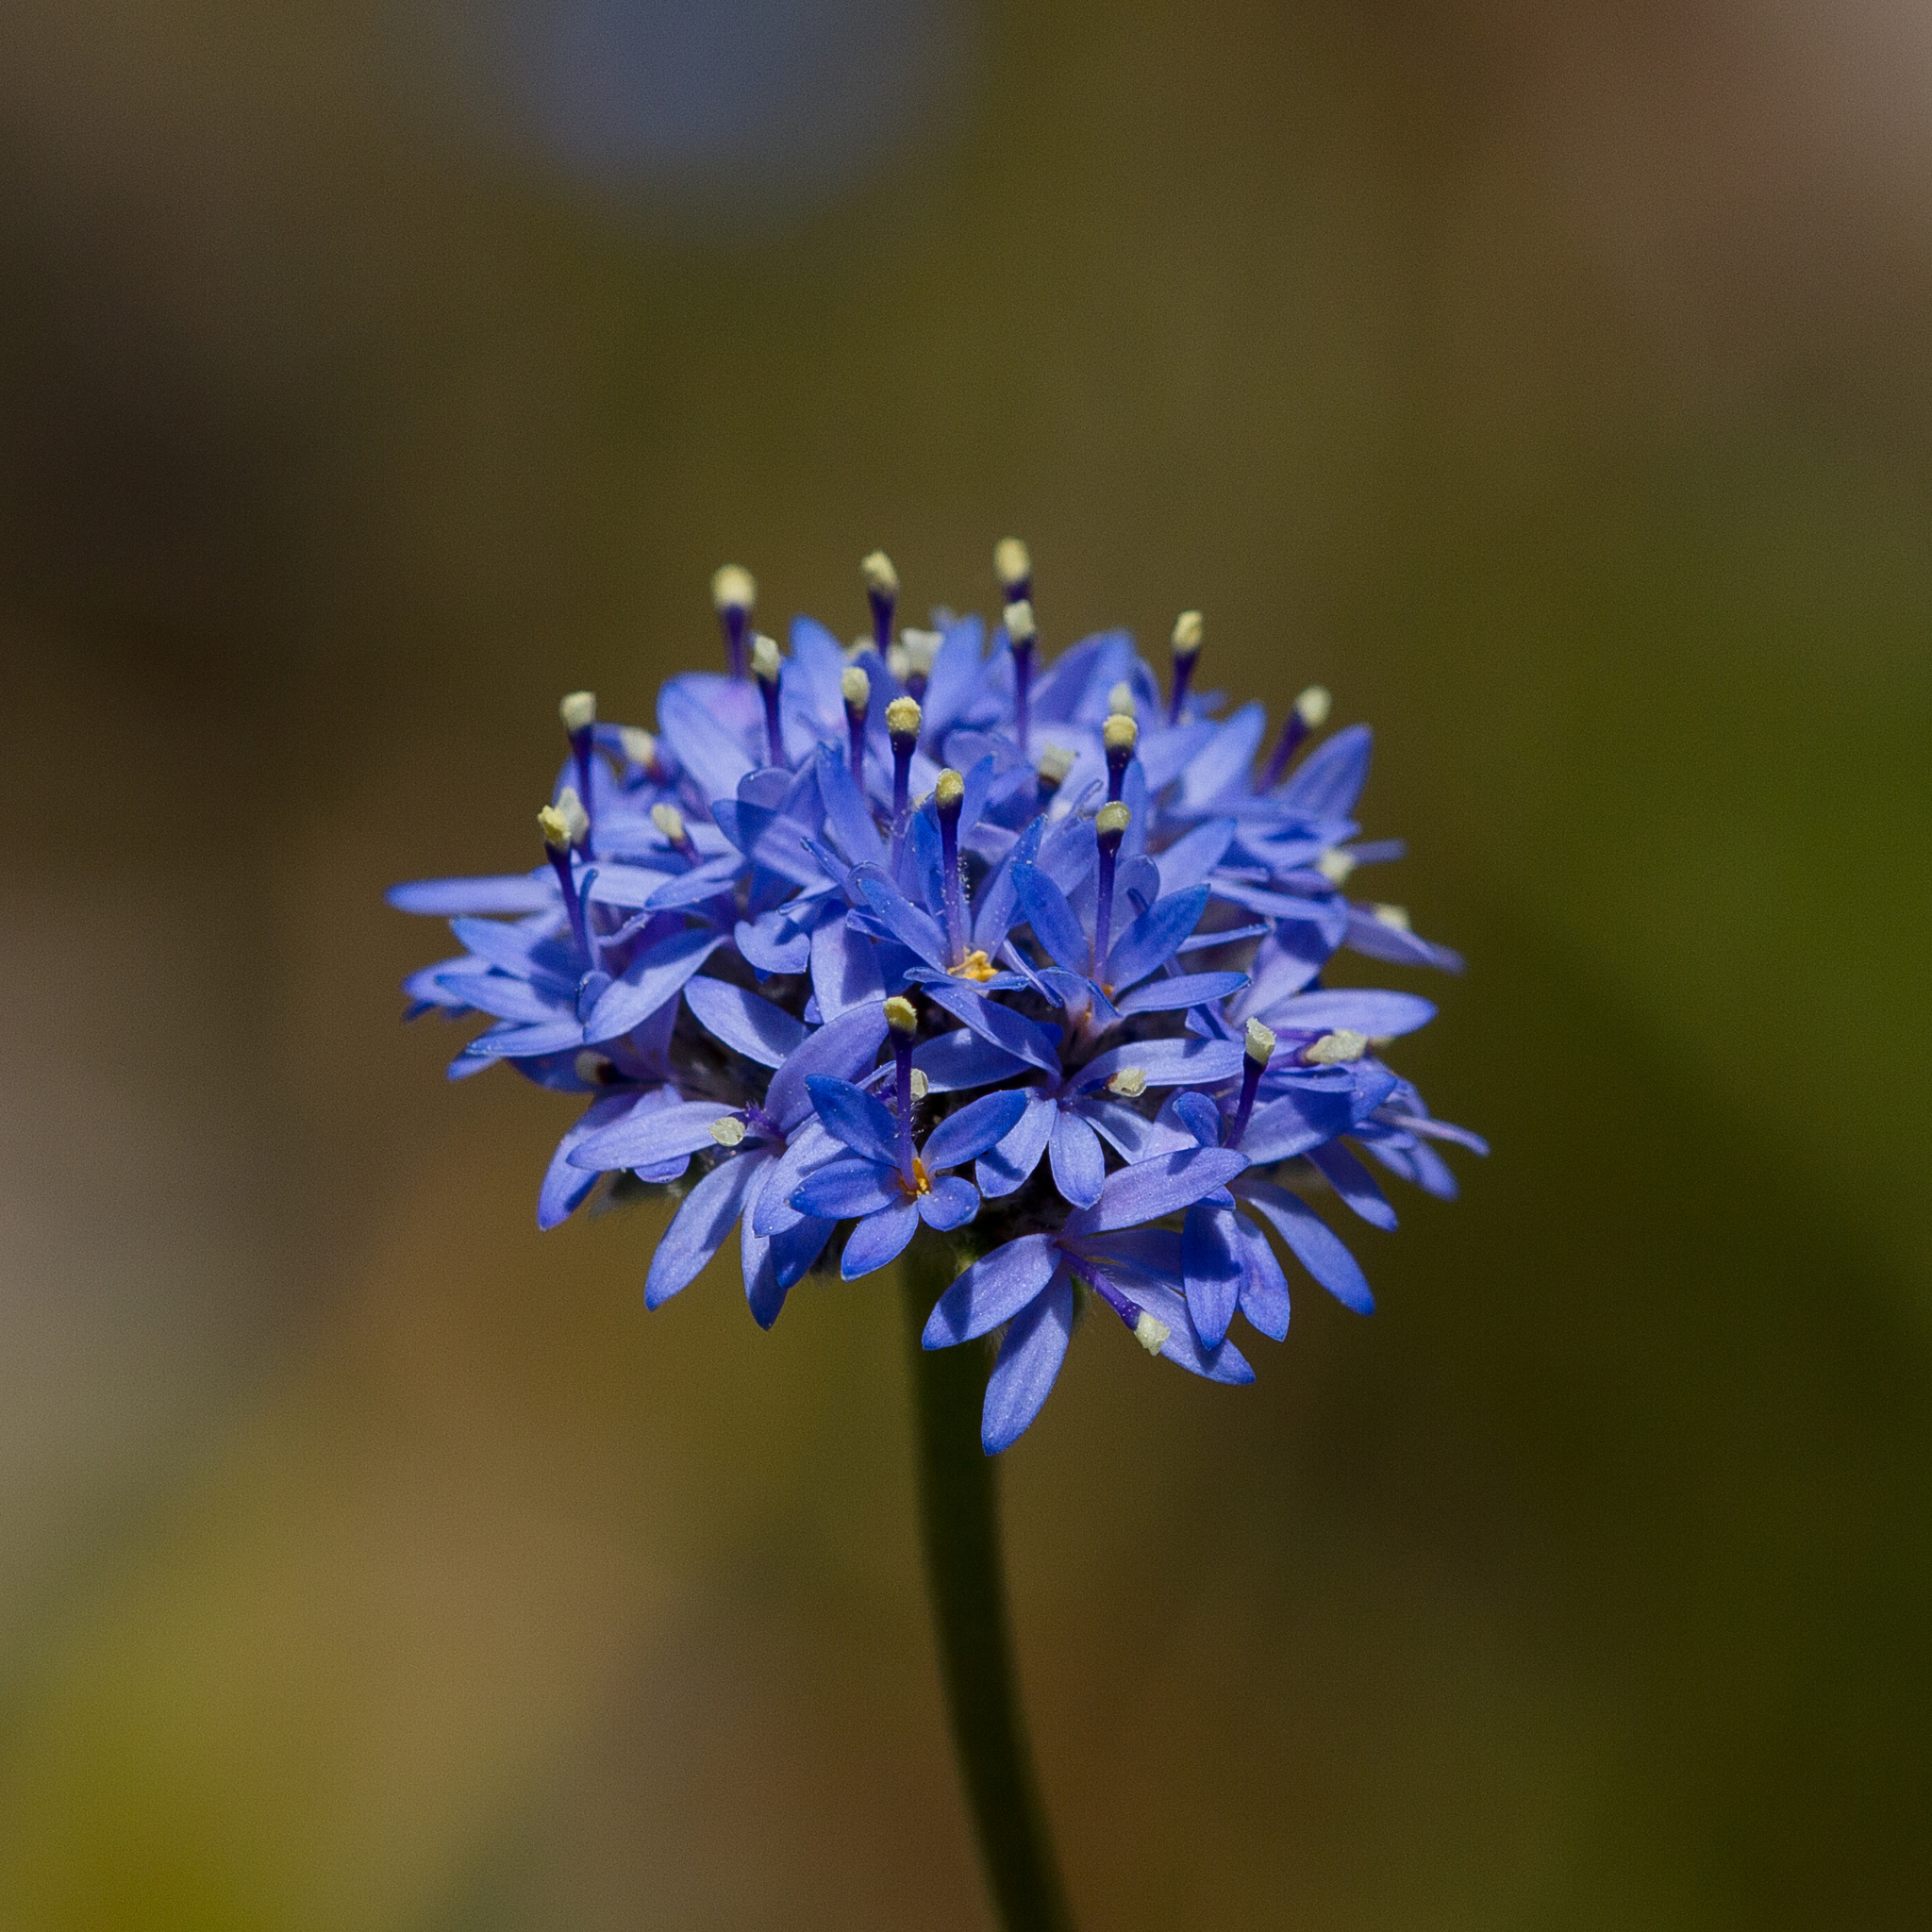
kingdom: Plantae
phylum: Tracheophyta
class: Magnoliopsida
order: Asterales
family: Goodeniaceae
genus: Brunonia
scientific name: Brunonia australis
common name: Blue pincushion
